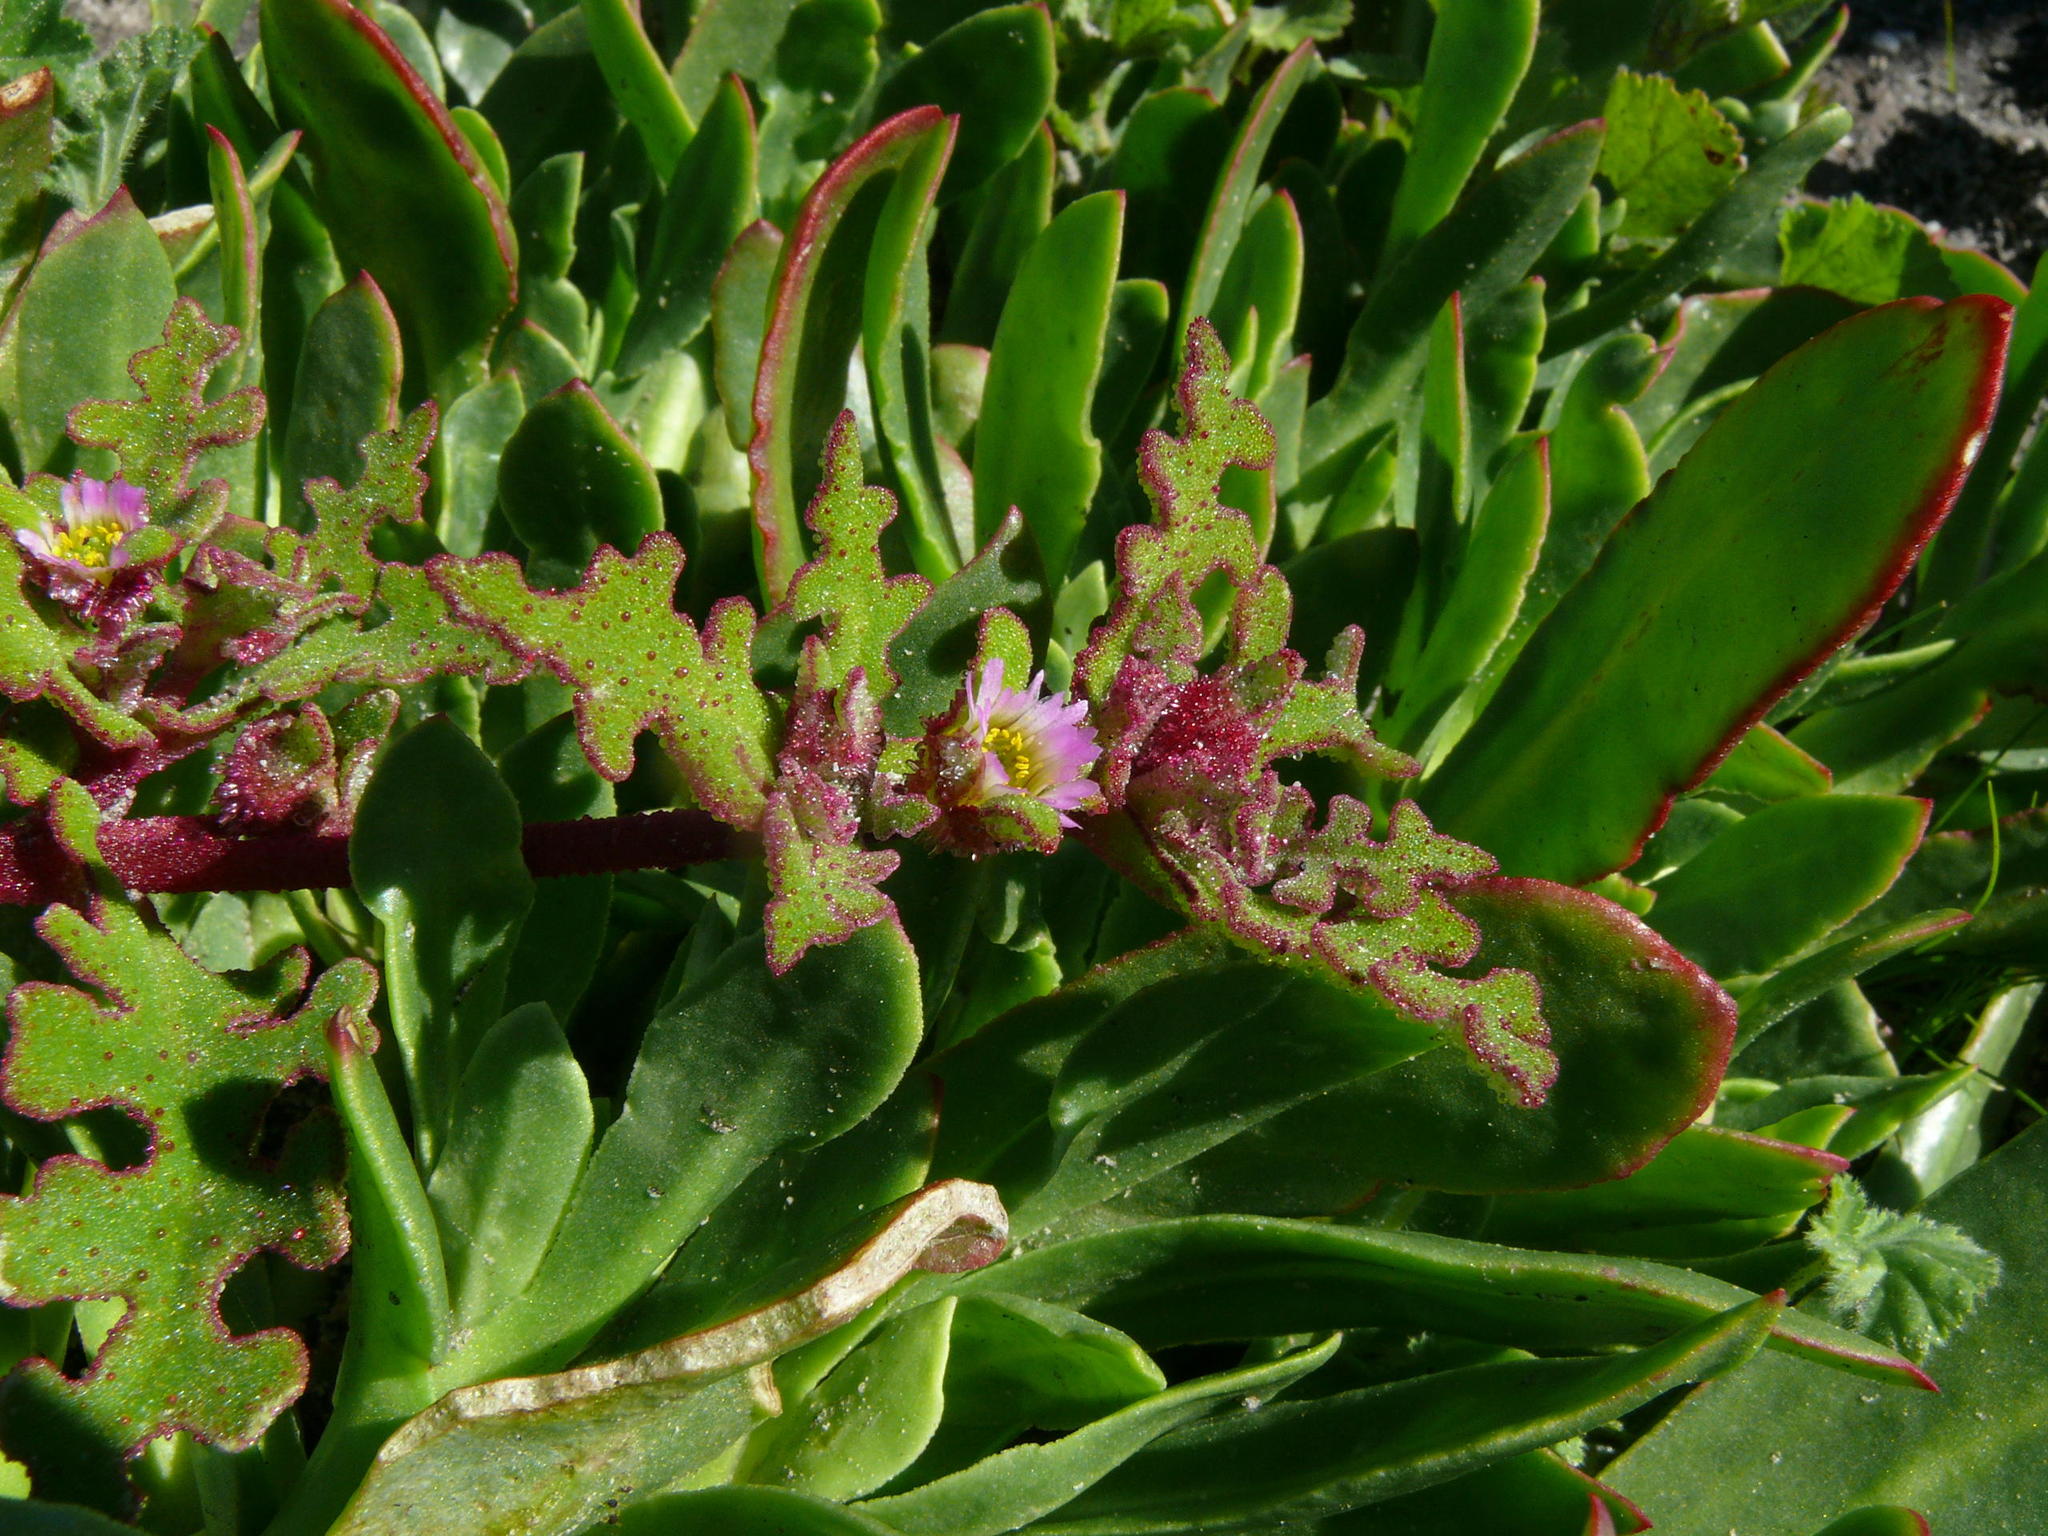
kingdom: Plantae
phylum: Tracheophyta
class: Magnoliopsida
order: Caryophyllales
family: Aizoaceae
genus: Skiatophytum
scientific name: Skiatophytum tripolium
